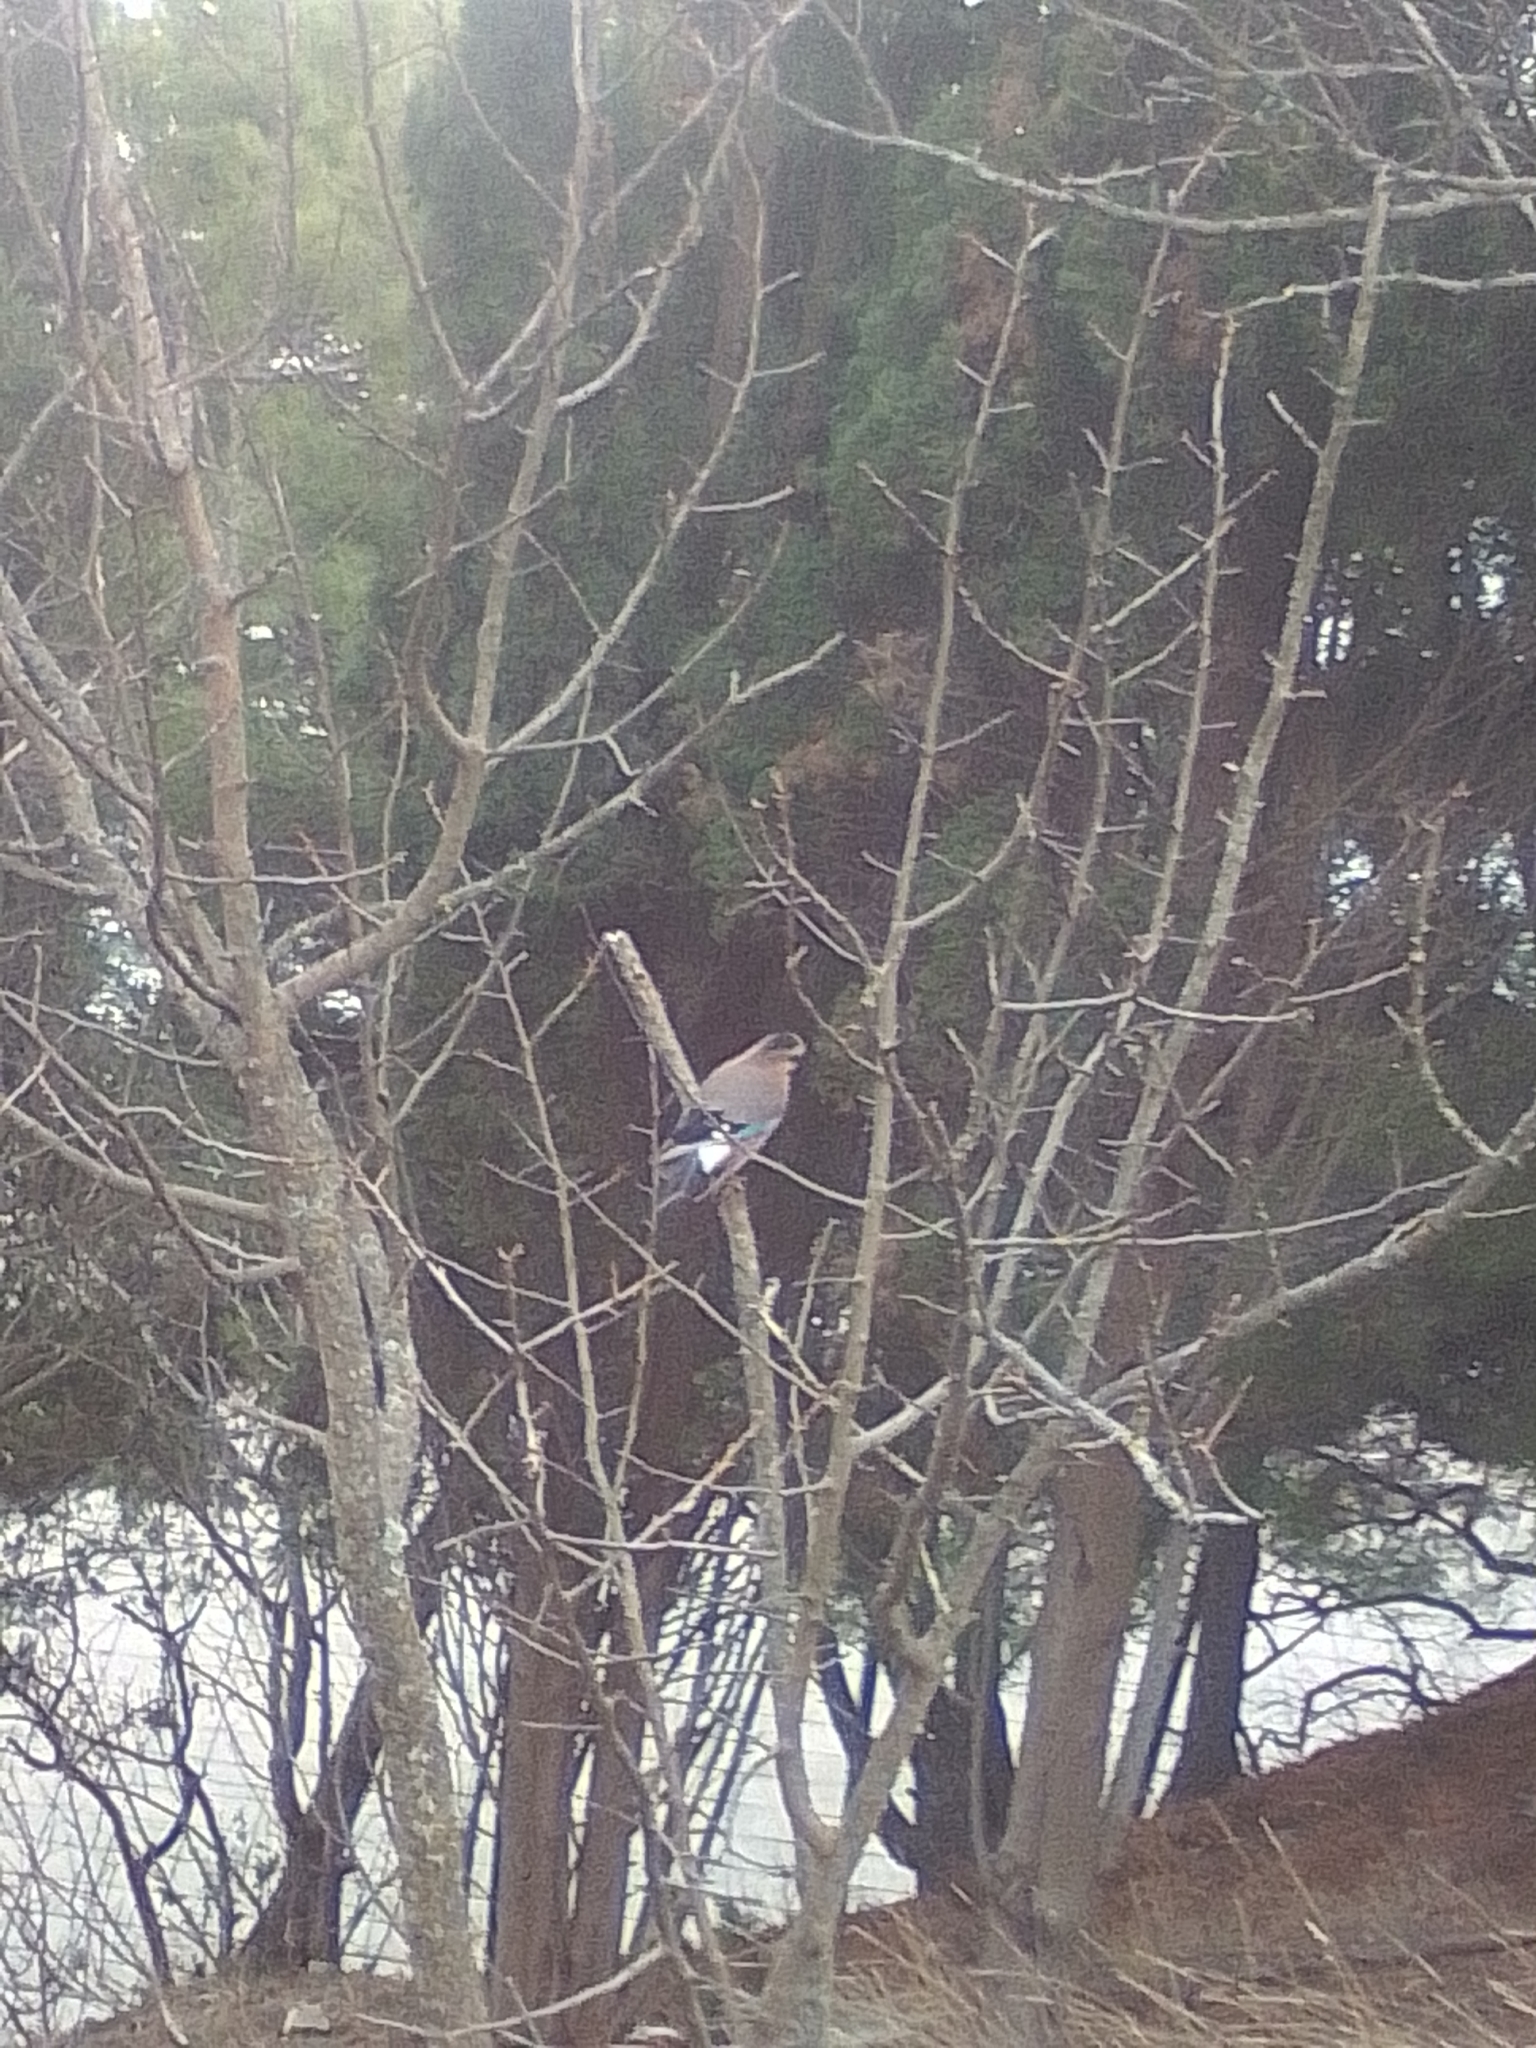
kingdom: Animalia
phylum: Chordata
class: Aves
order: Passeriformes
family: Corvidae
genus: Garrulus
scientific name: Garrulus glandarius
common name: Eurasian jay
